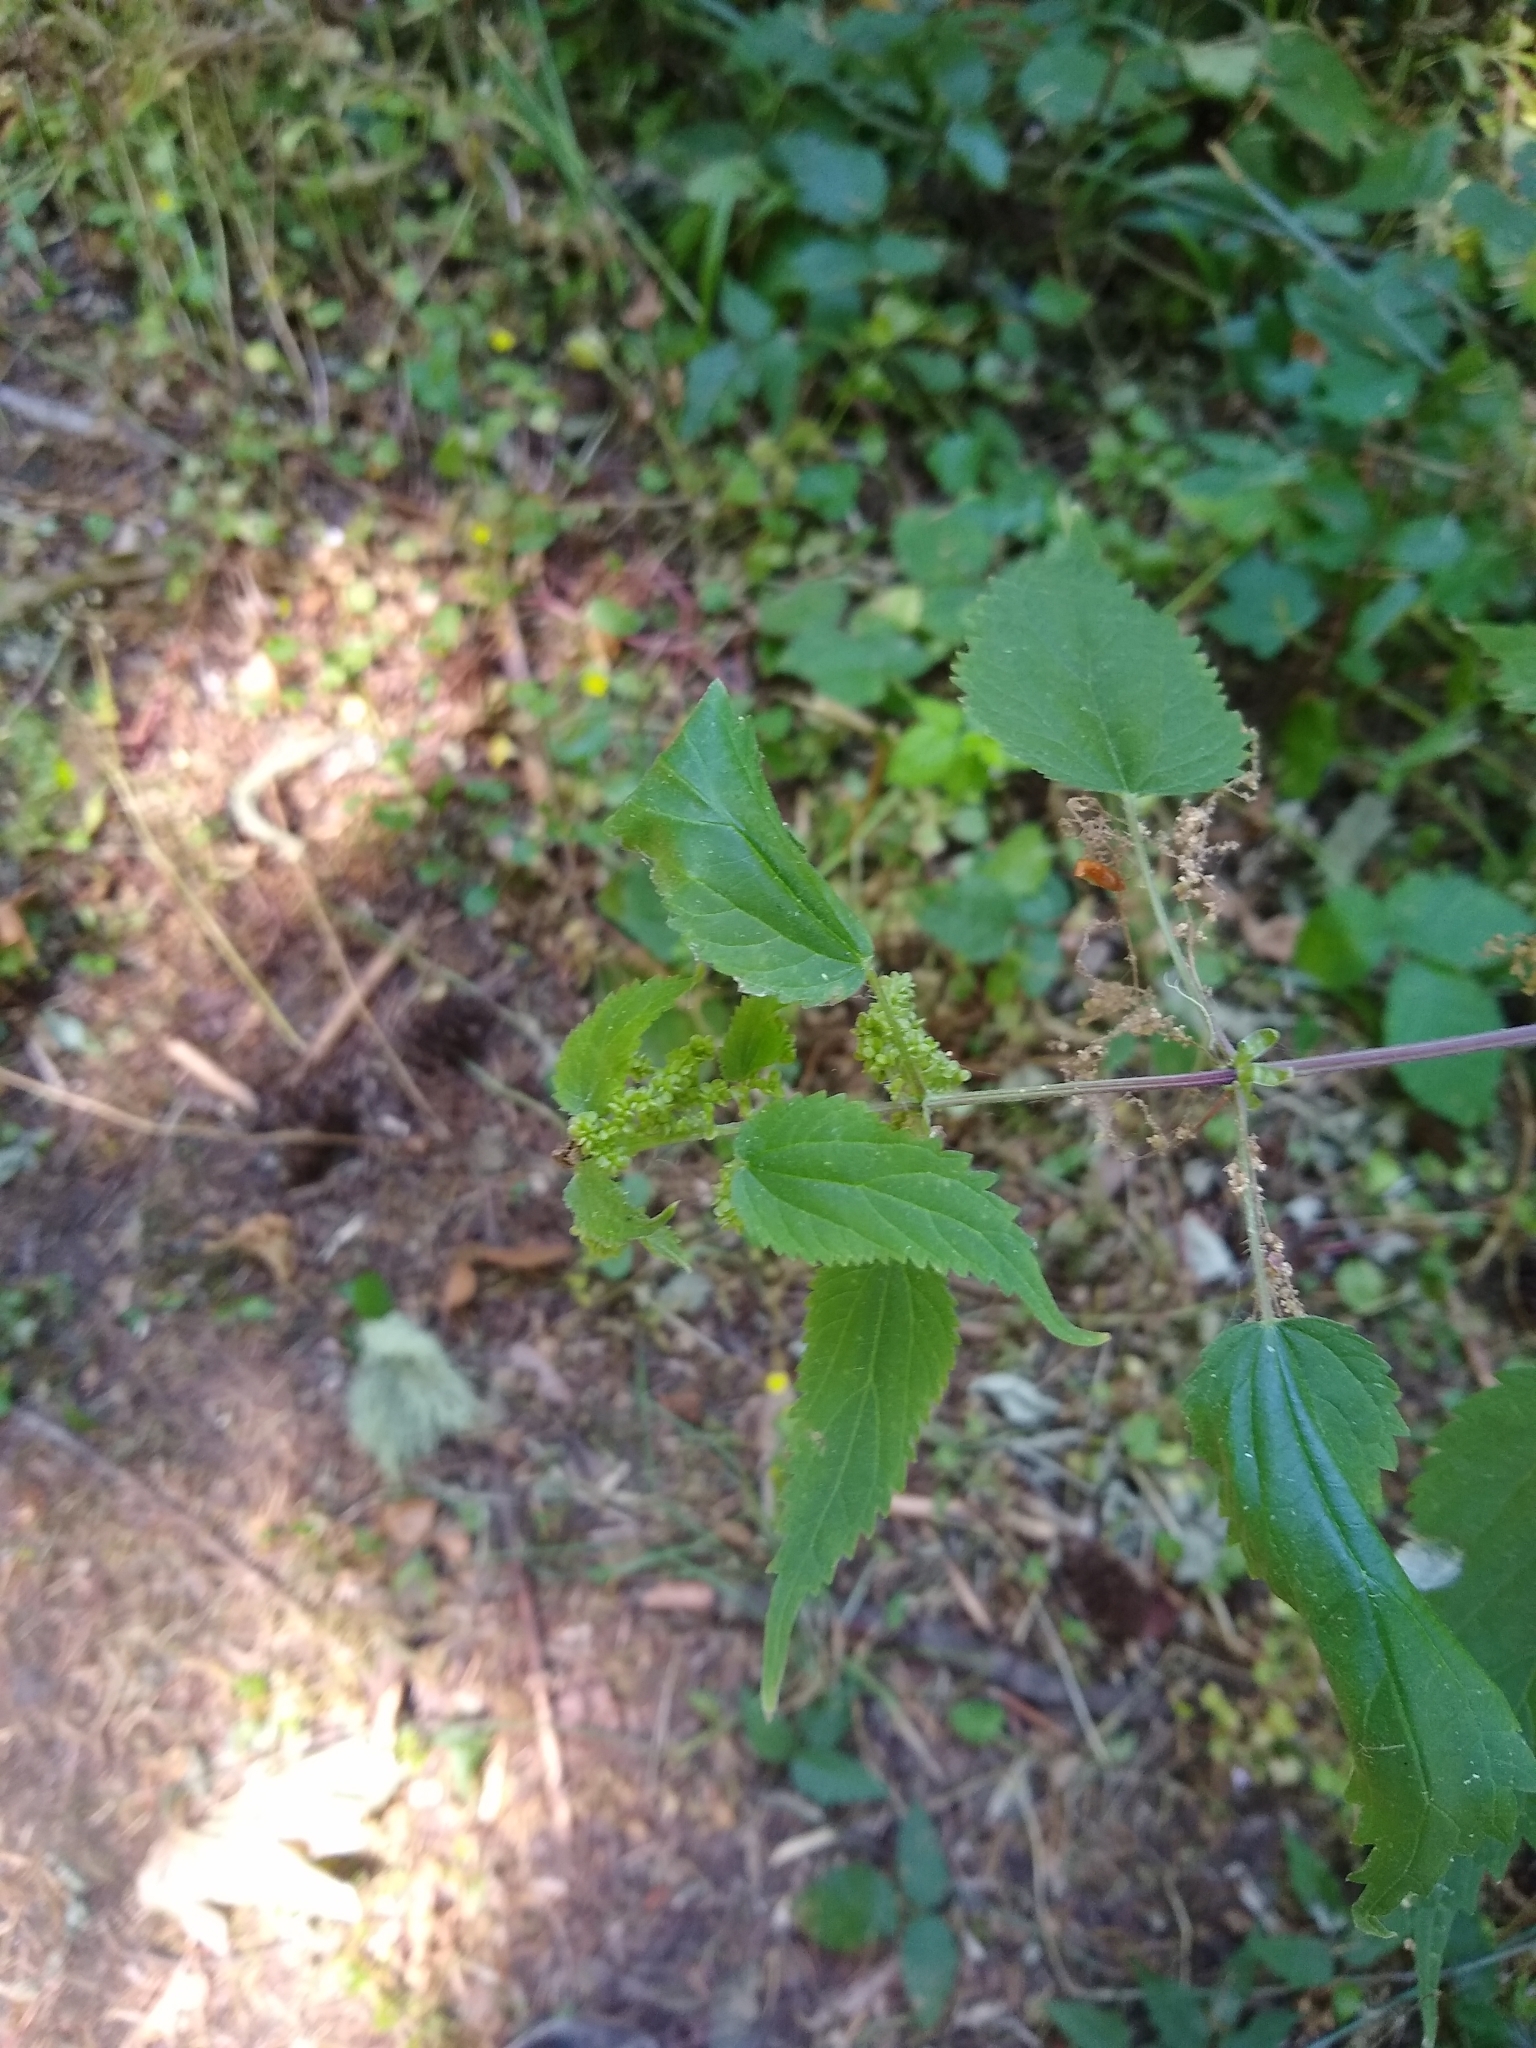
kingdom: Plantae
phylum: Tracheophyta
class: Magnoliopsida
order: Rosales
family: Urticaceae
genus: Urtica
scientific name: Urtica dioica
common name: Common nettle
